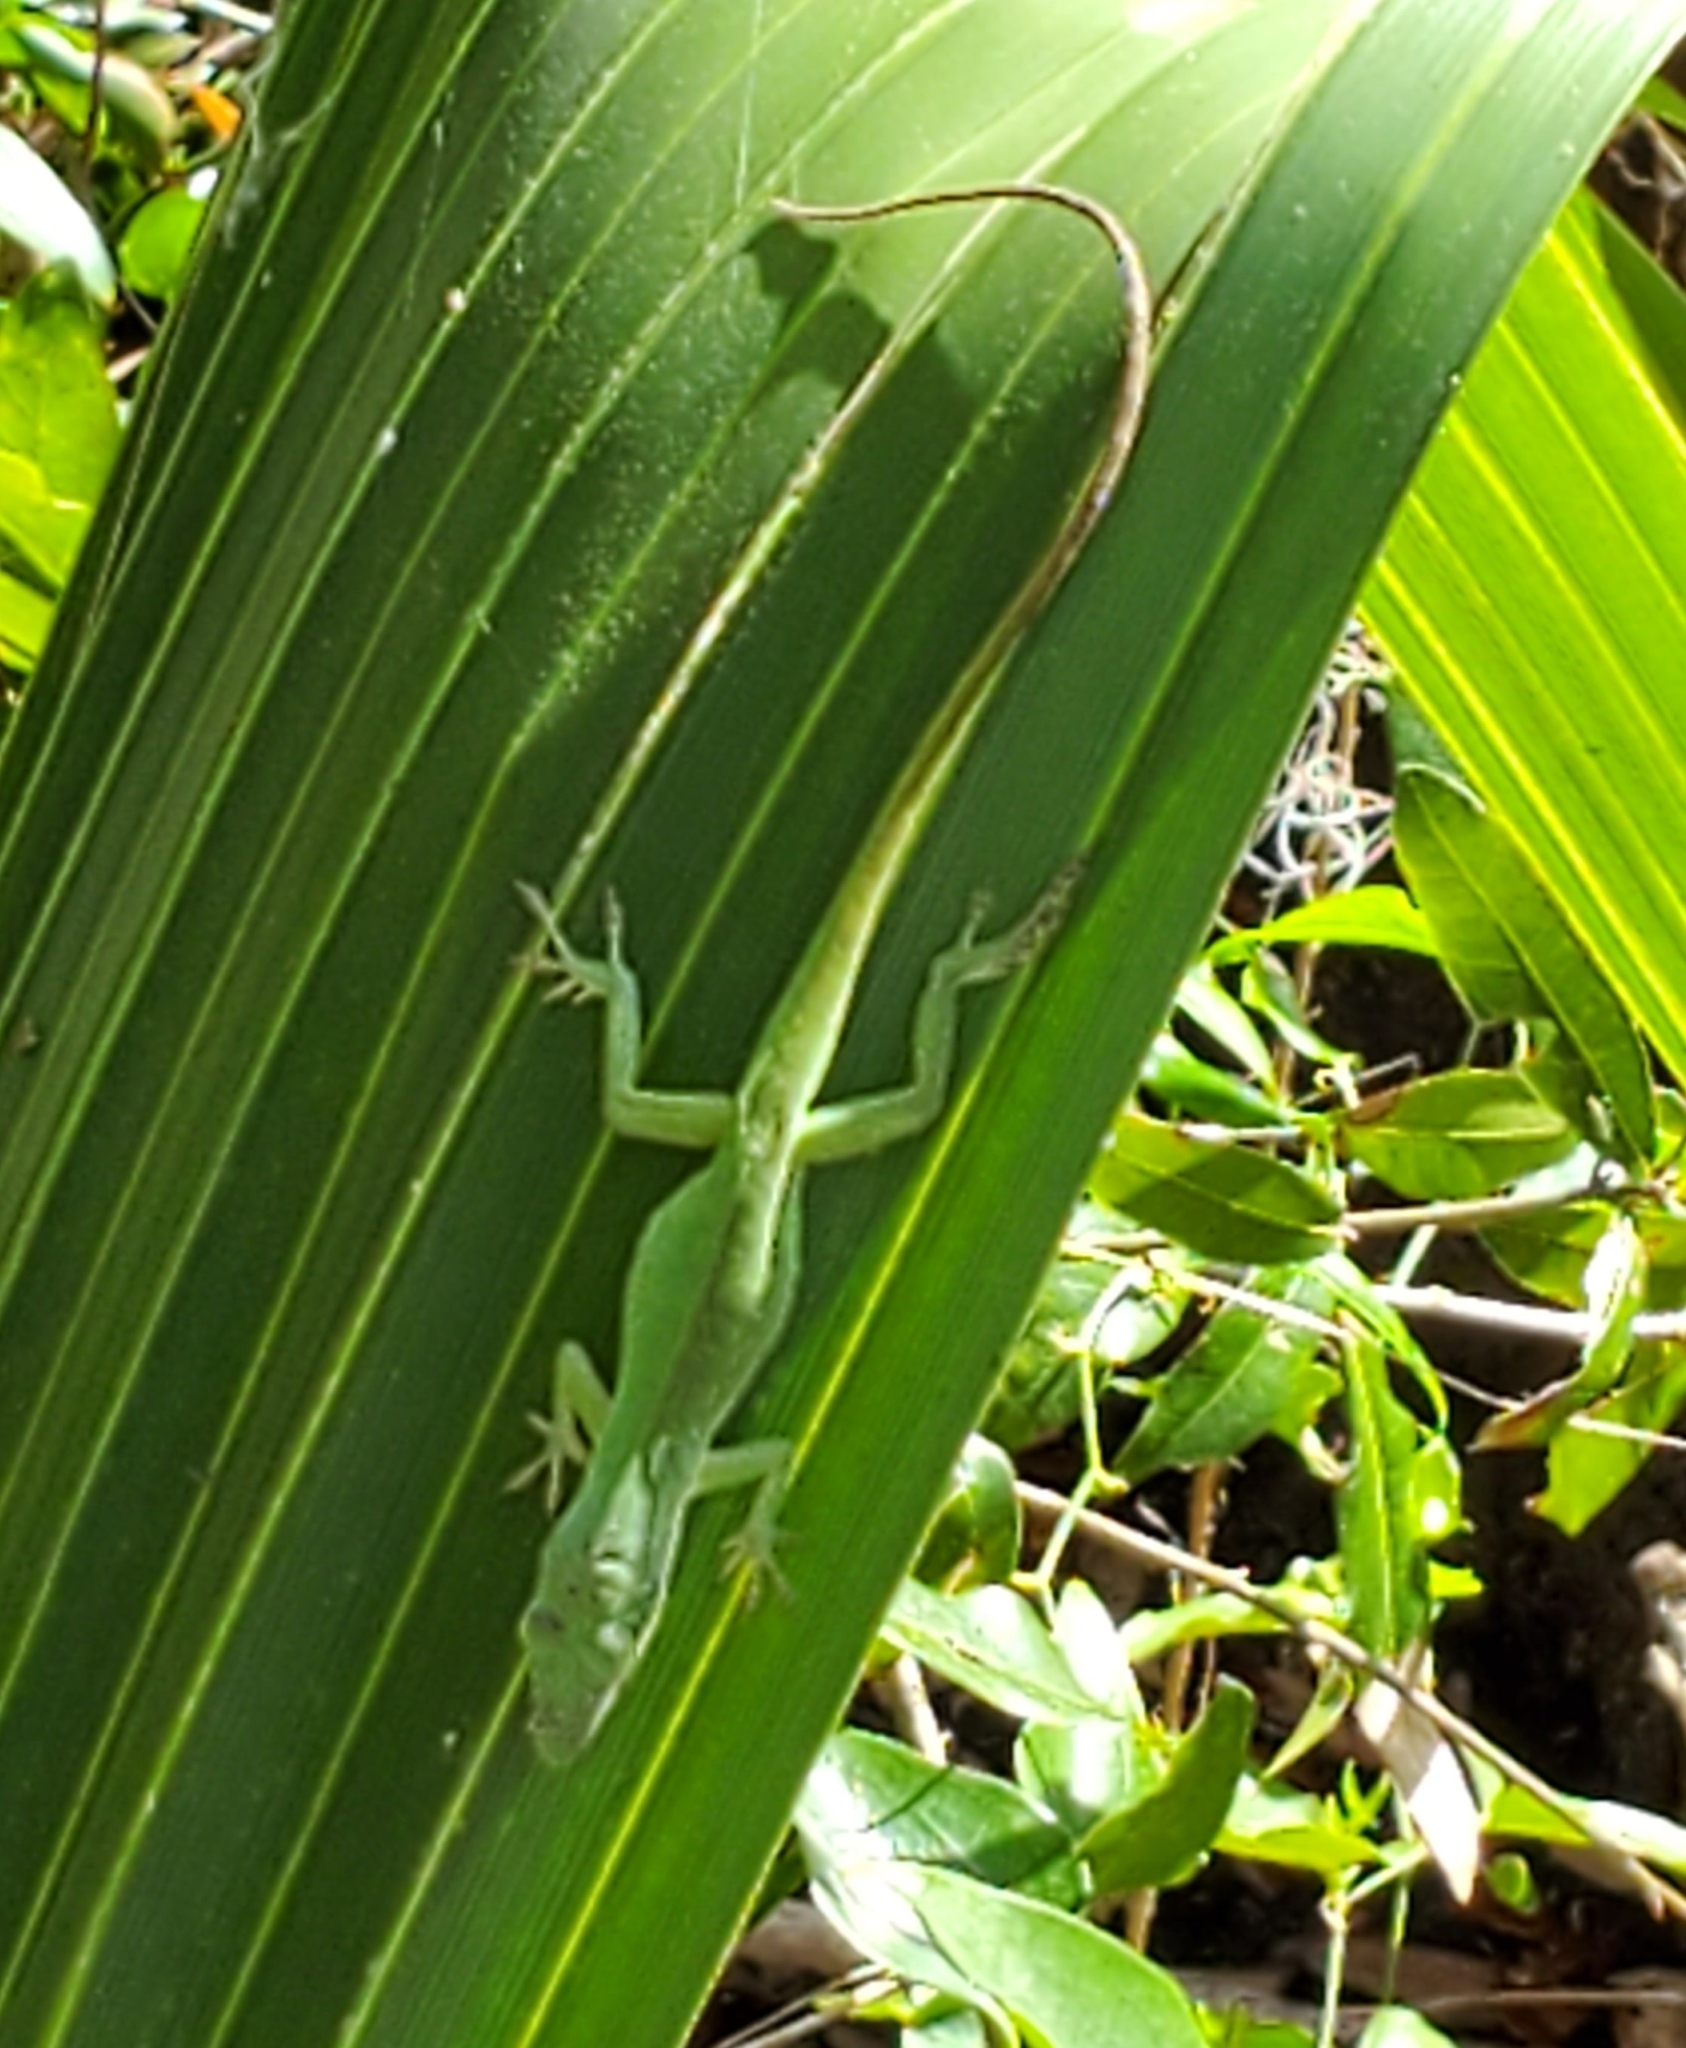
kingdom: Animalia
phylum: Chordata
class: Squamata
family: Dactyloidae
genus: Anolis
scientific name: Anolis carolinensis
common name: Green anole
